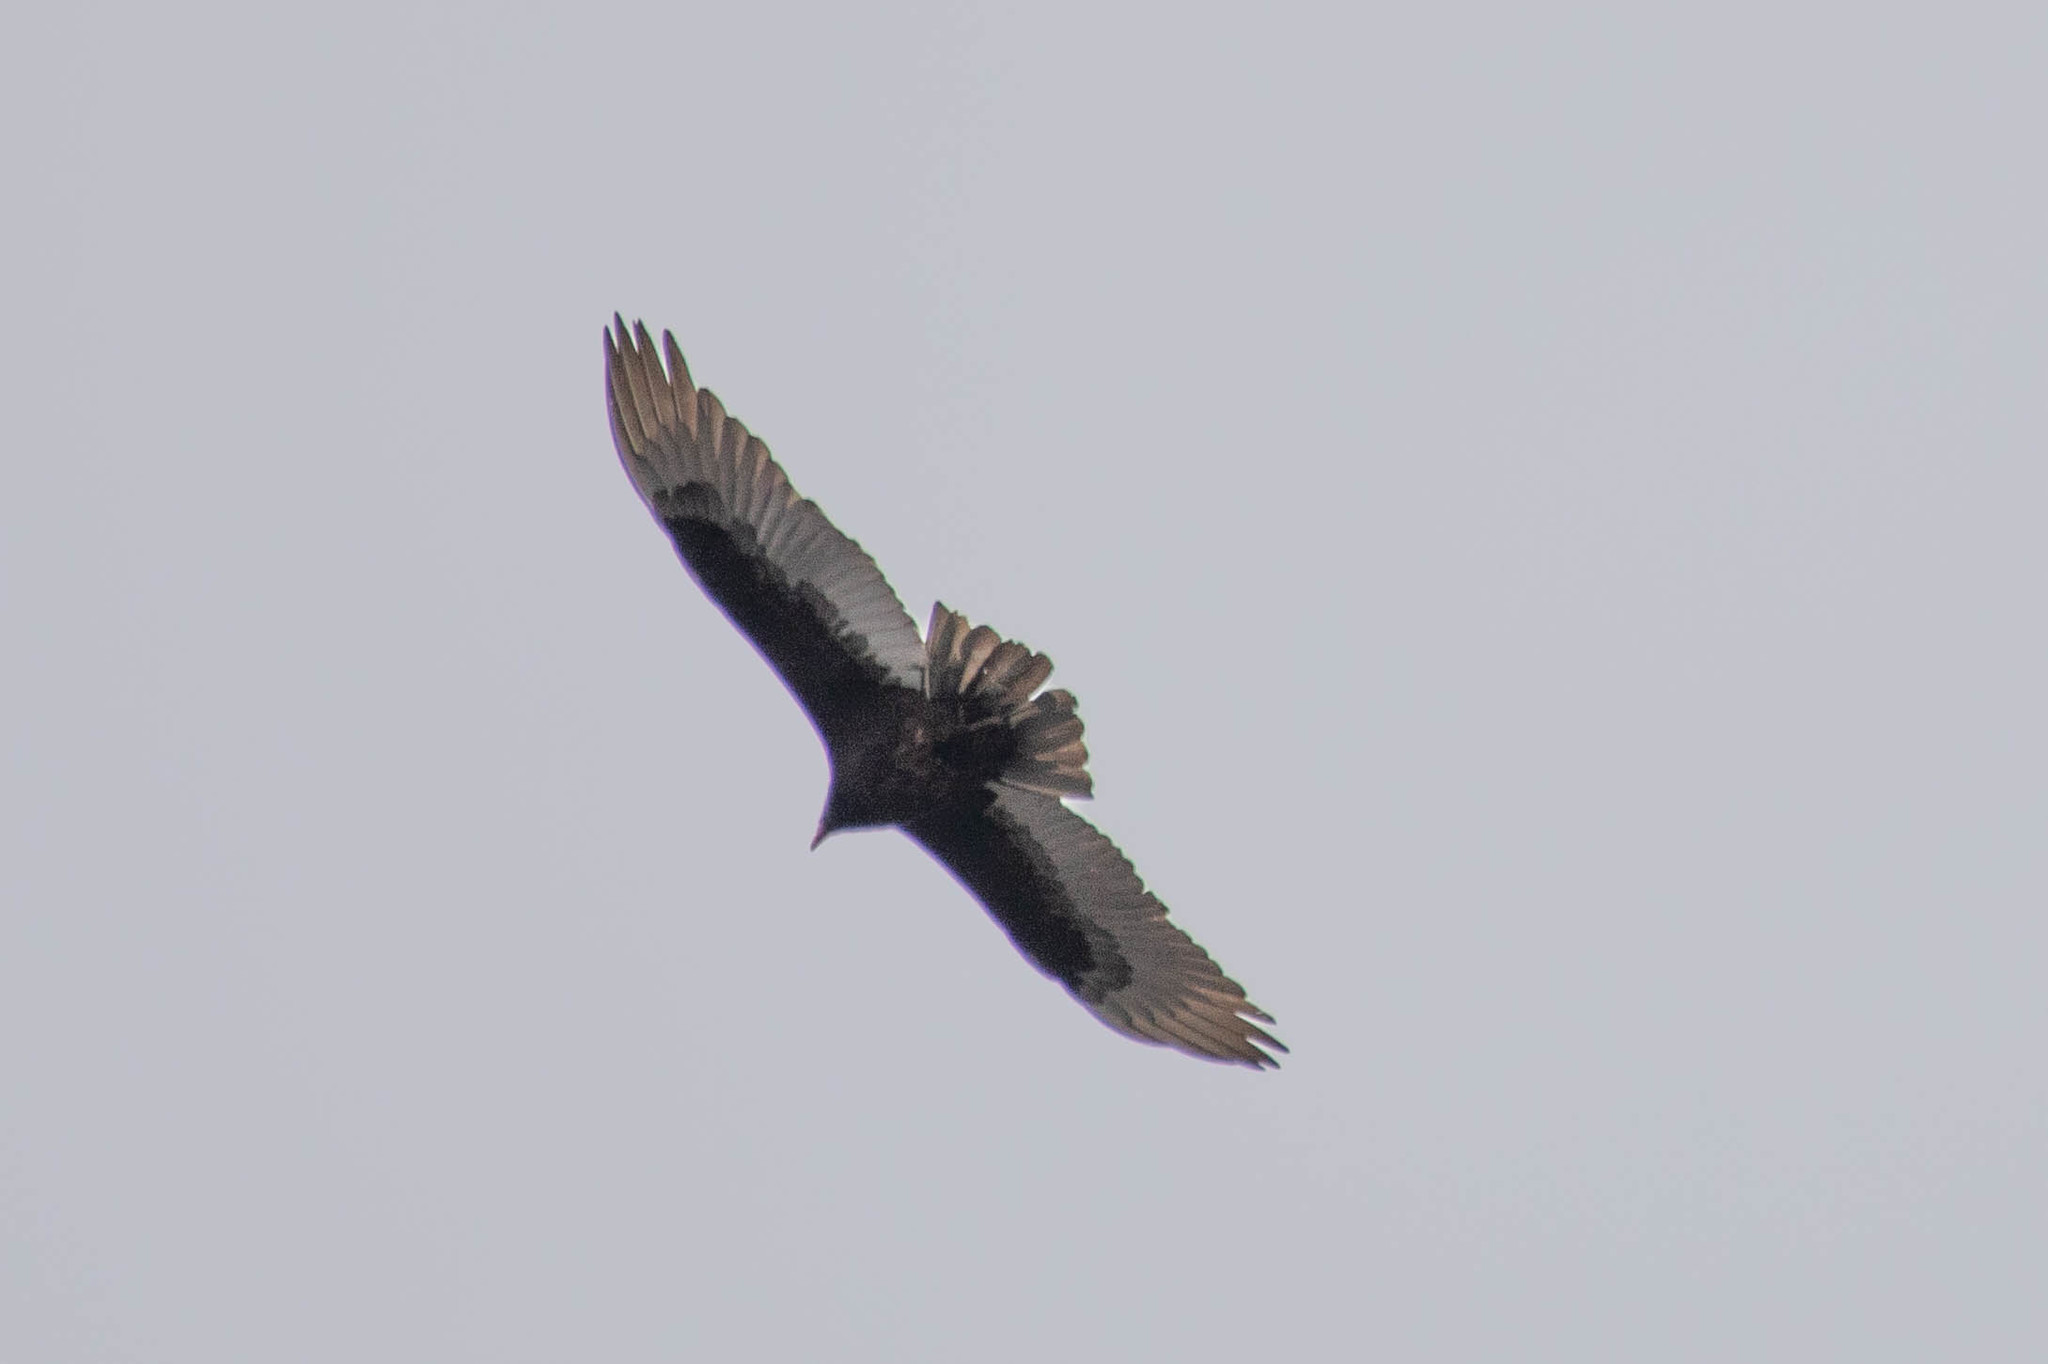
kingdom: Animalia
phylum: Chordata
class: Aves
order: Accipitriformes
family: Cathartidae
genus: Cathartes
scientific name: Cathartes aura
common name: Turkey vulture
